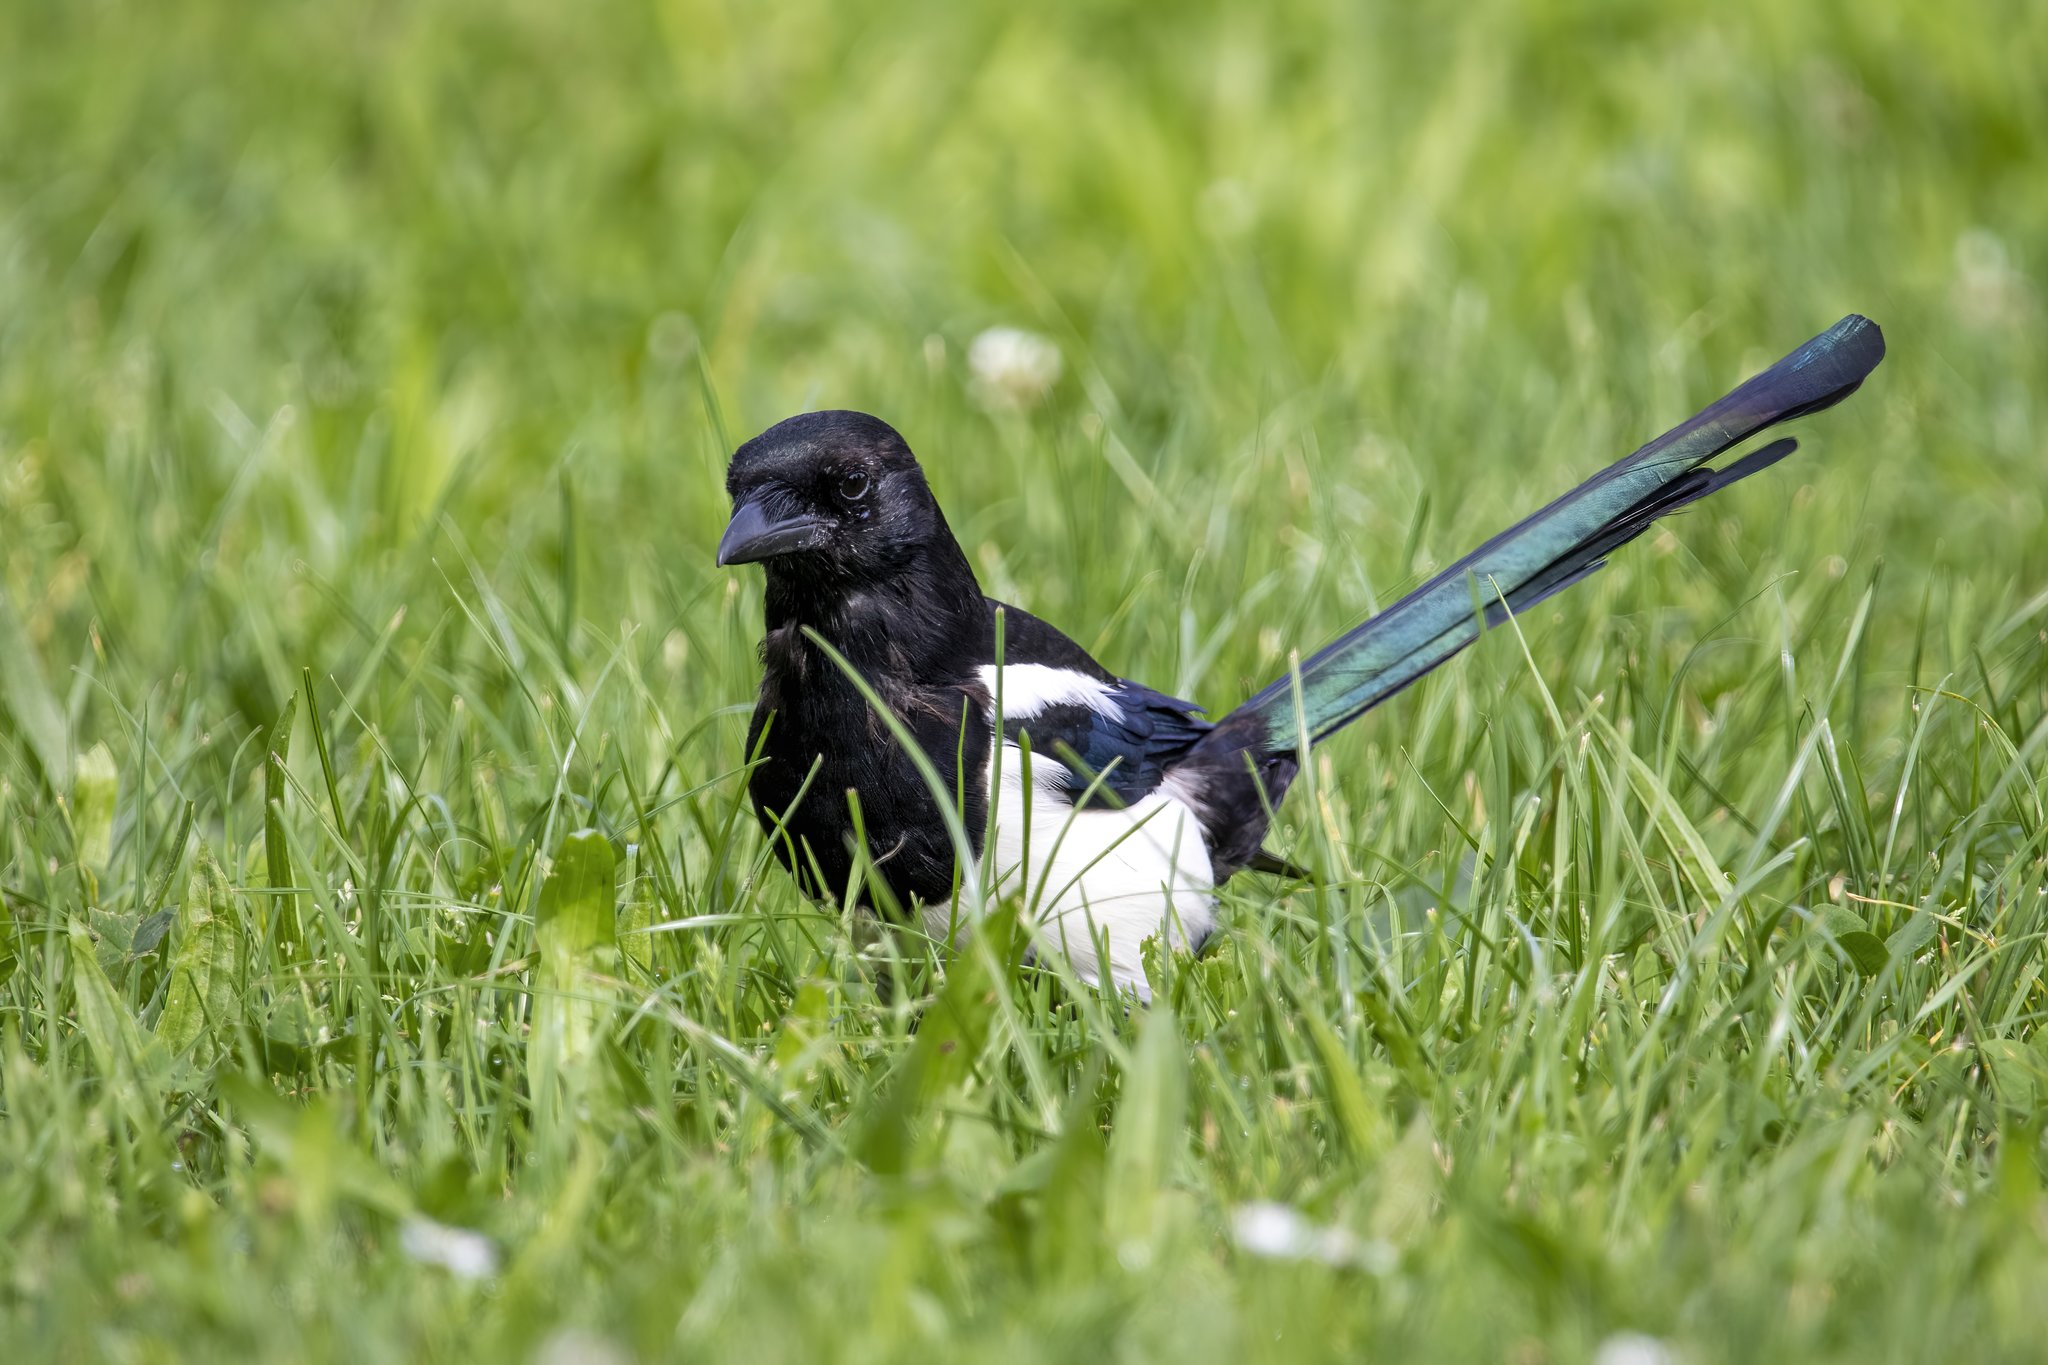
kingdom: Animalia
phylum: Chordata
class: Aves
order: Passeriformes
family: Corvidae
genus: Pica
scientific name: Pica pica
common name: Eurasian magpie
